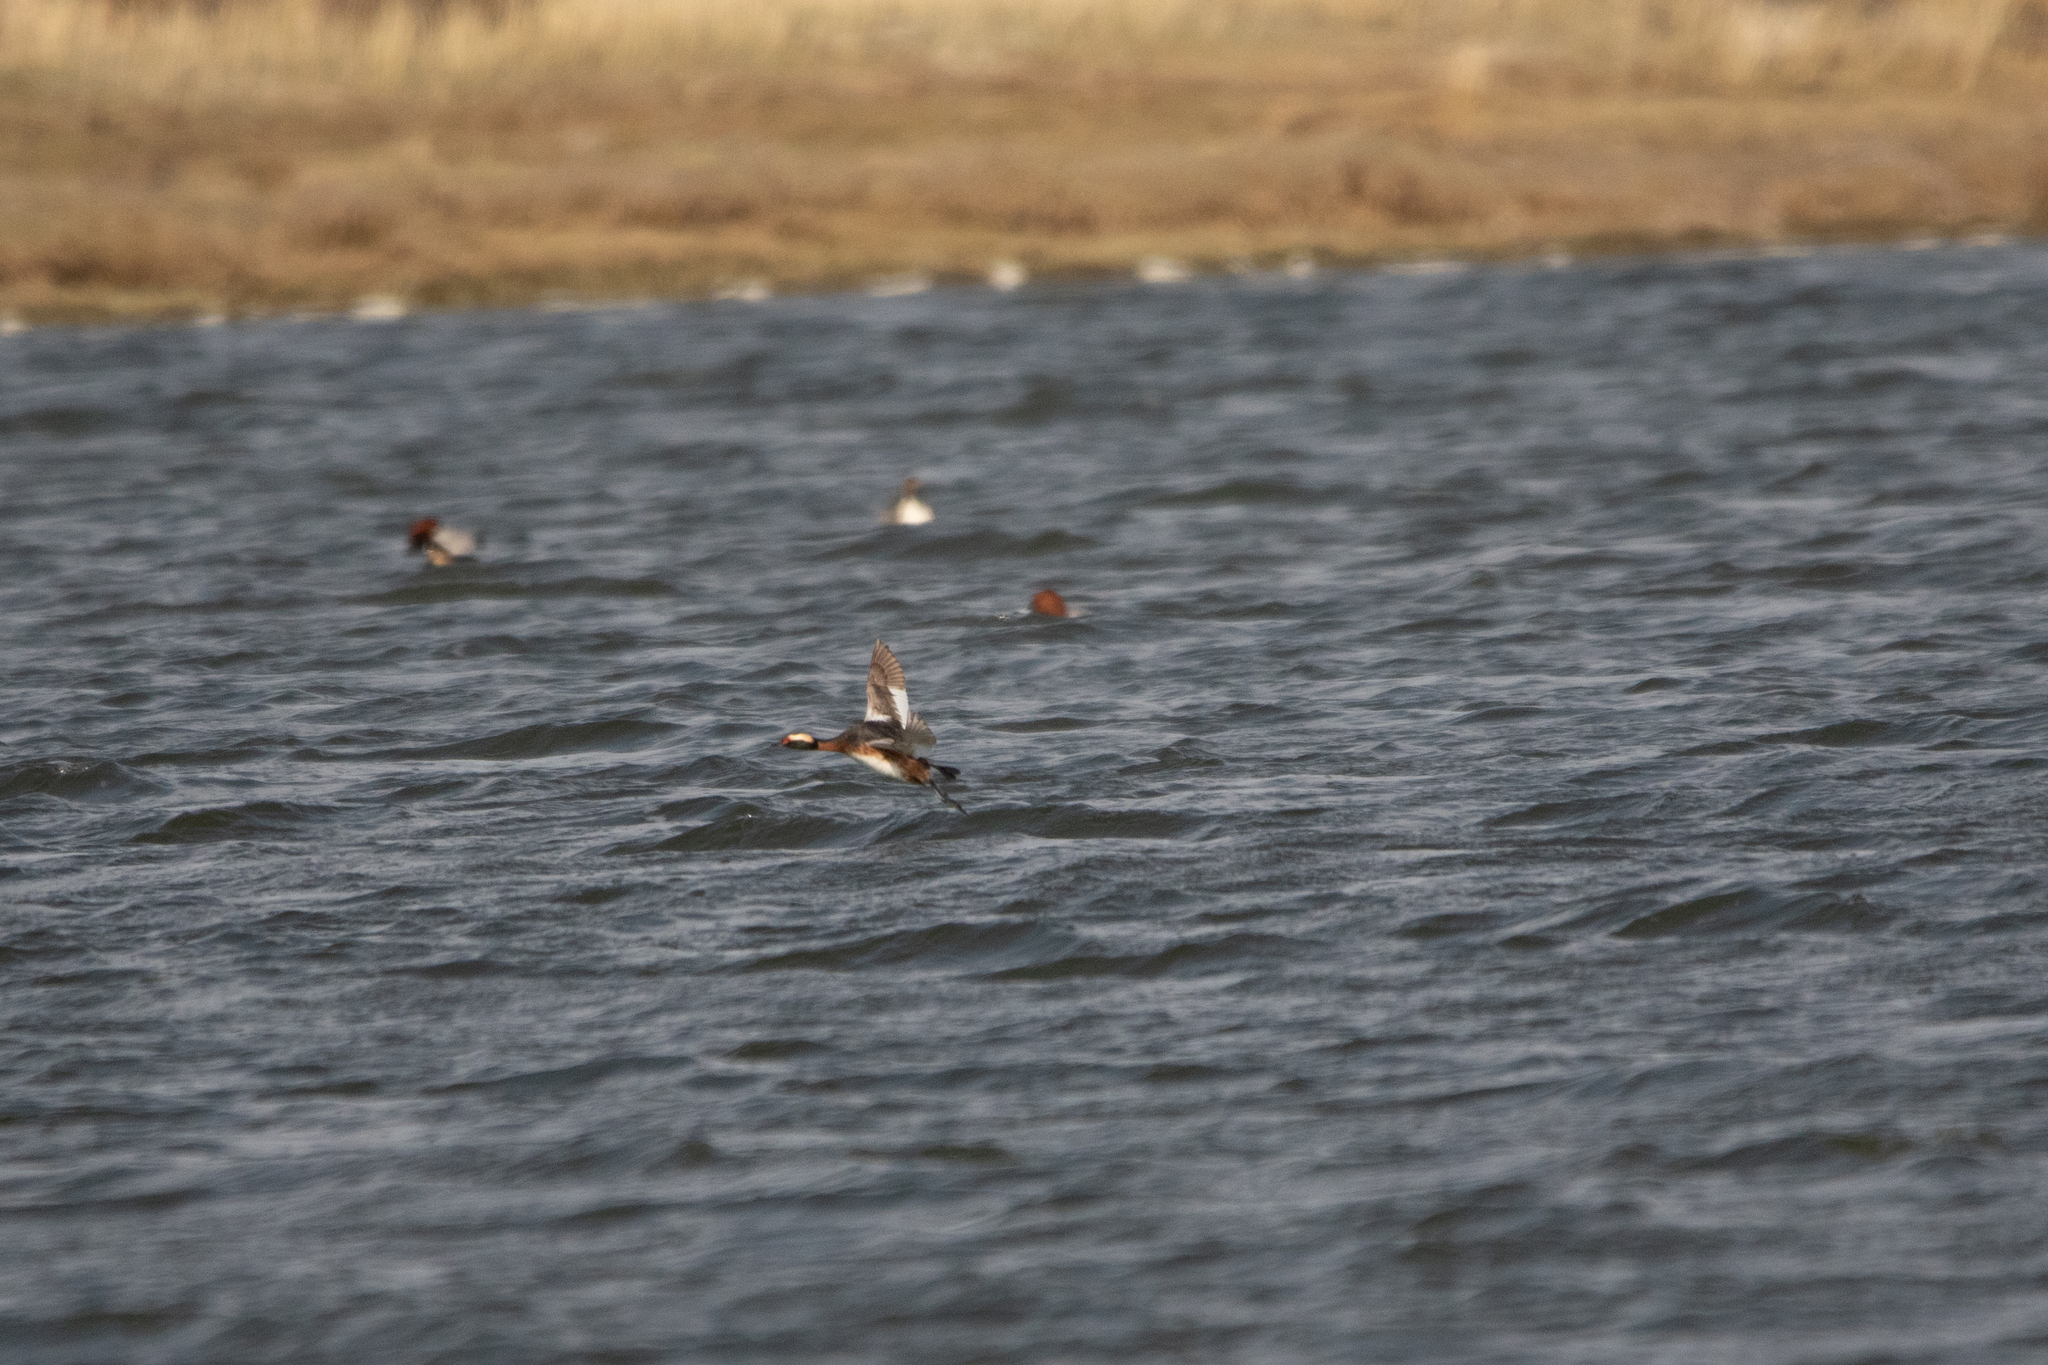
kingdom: Animalia
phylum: Chordata
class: Aves
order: Podicipediformes
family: Podicipedidae
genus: Podiceps
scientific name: Podiceps auritus
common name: Horned grebe
